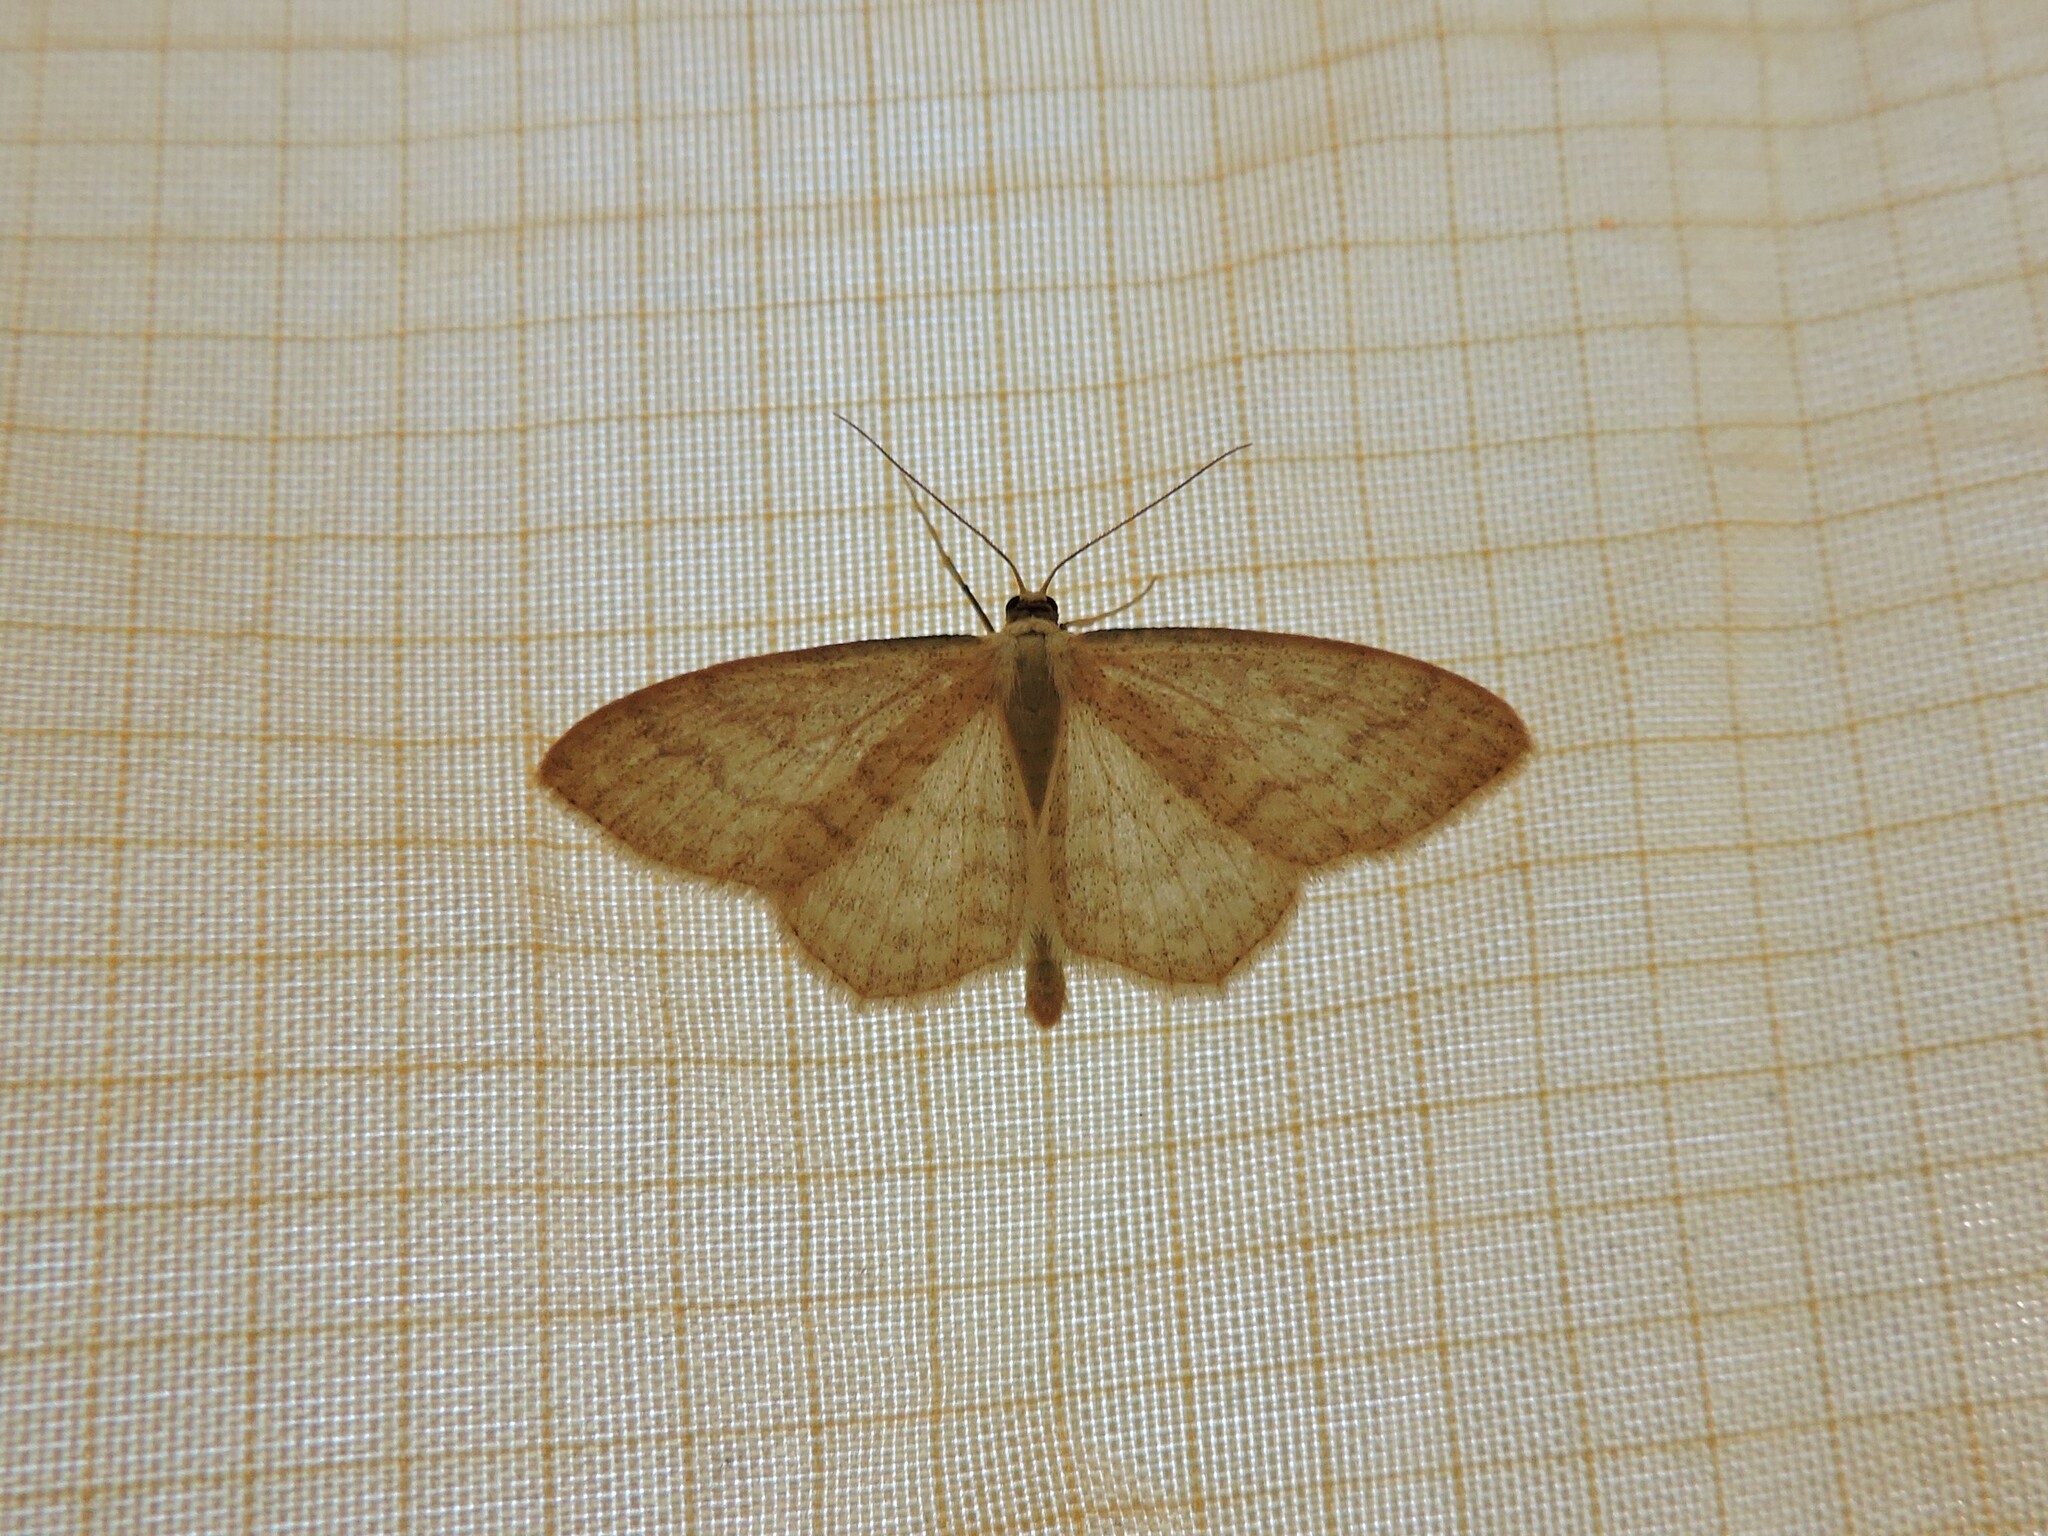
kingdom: Animalia
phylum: Arthropoda
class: Insecta
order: Lepidoptera
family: Geometridae
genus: Scopula
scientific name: Scopula floslactata
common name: Cream wave
